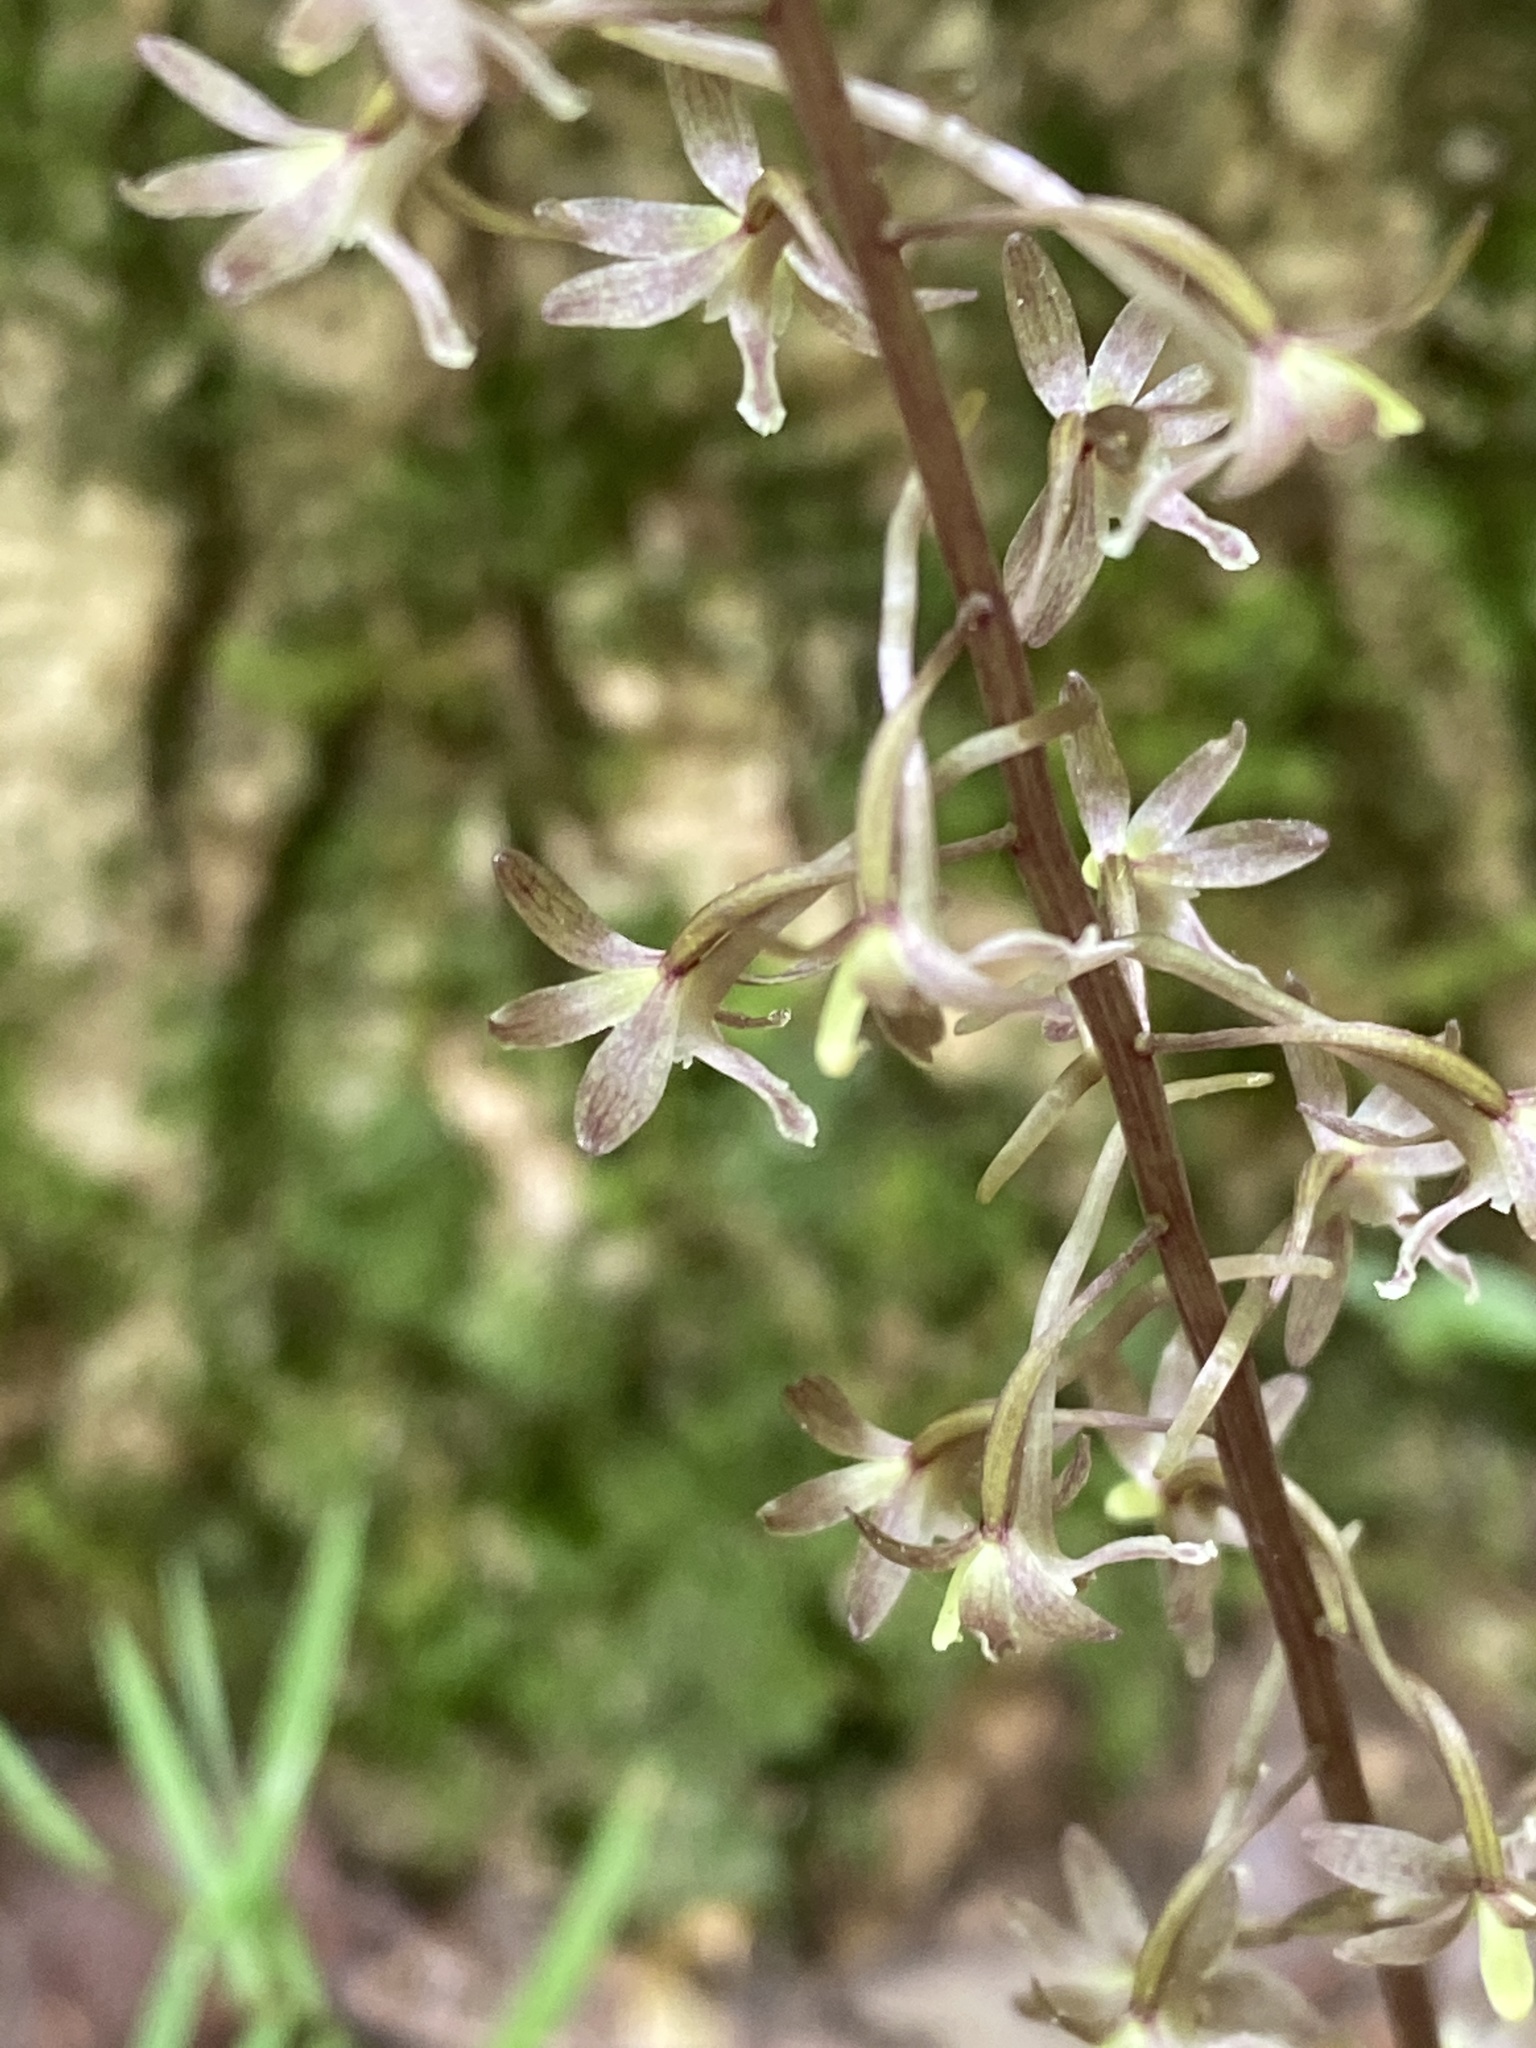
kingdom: Plantae
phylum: Tracheophyta
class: Liliopsida
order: Asparagales
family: Orchidaceae
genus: Tipularia
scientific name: Tipularia discolor
